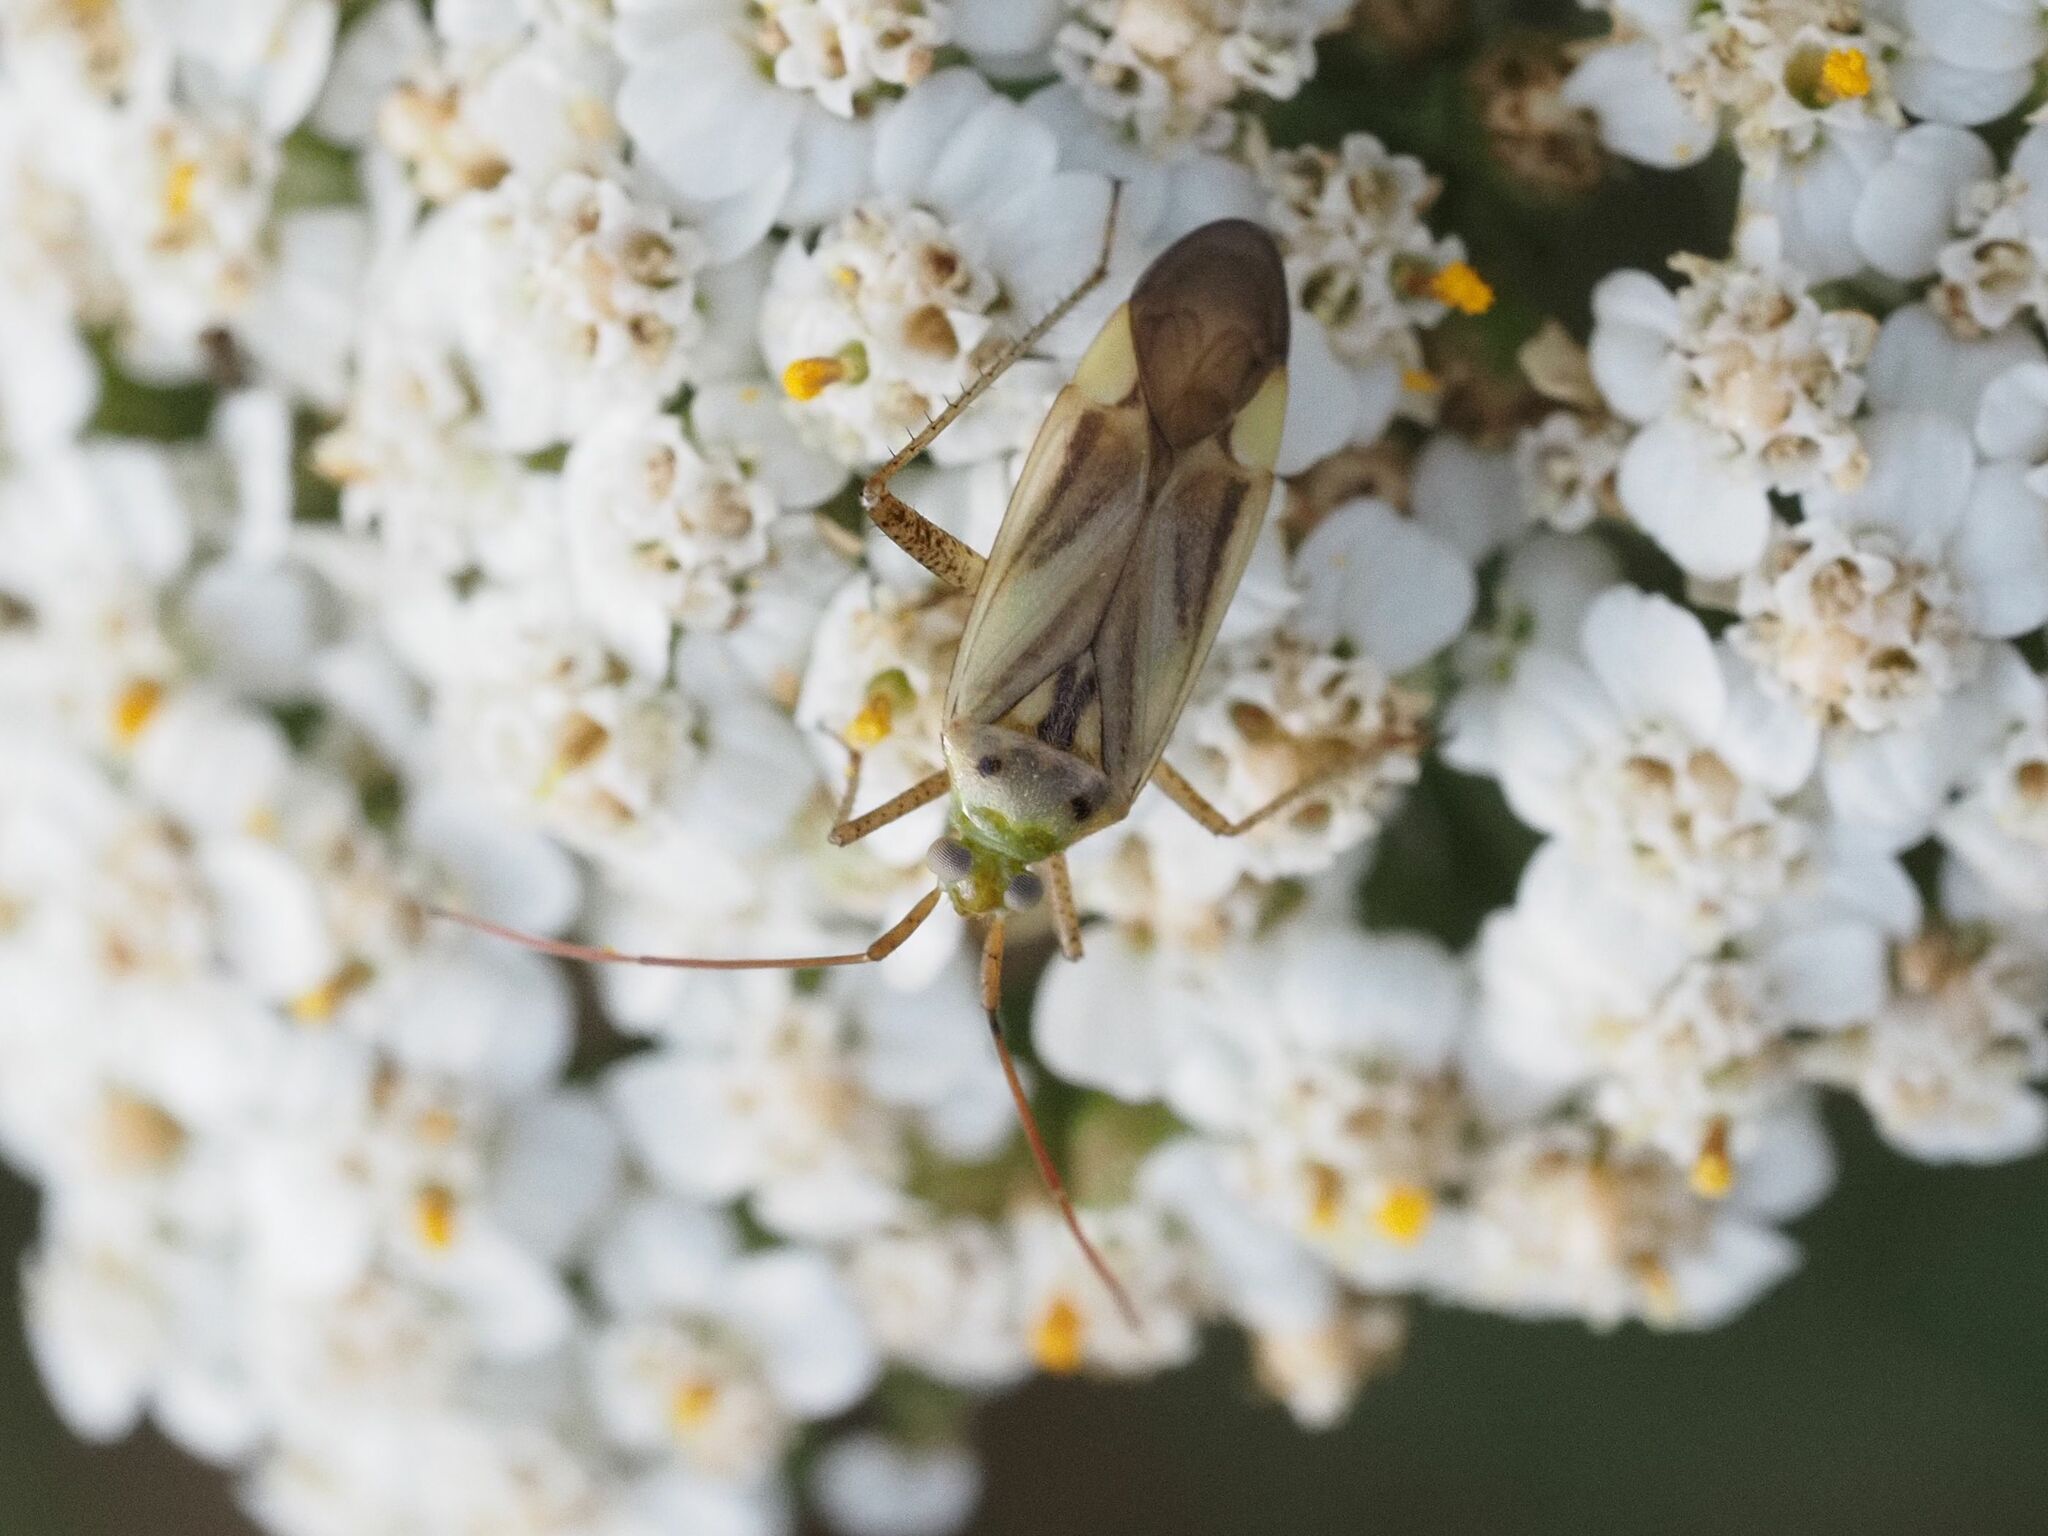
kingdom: Animalia
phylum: Arthropoda
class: Insecta
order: Hemiptera
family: Miridae
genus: Adelphocoris
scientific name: Adelphocoris lineolatus
